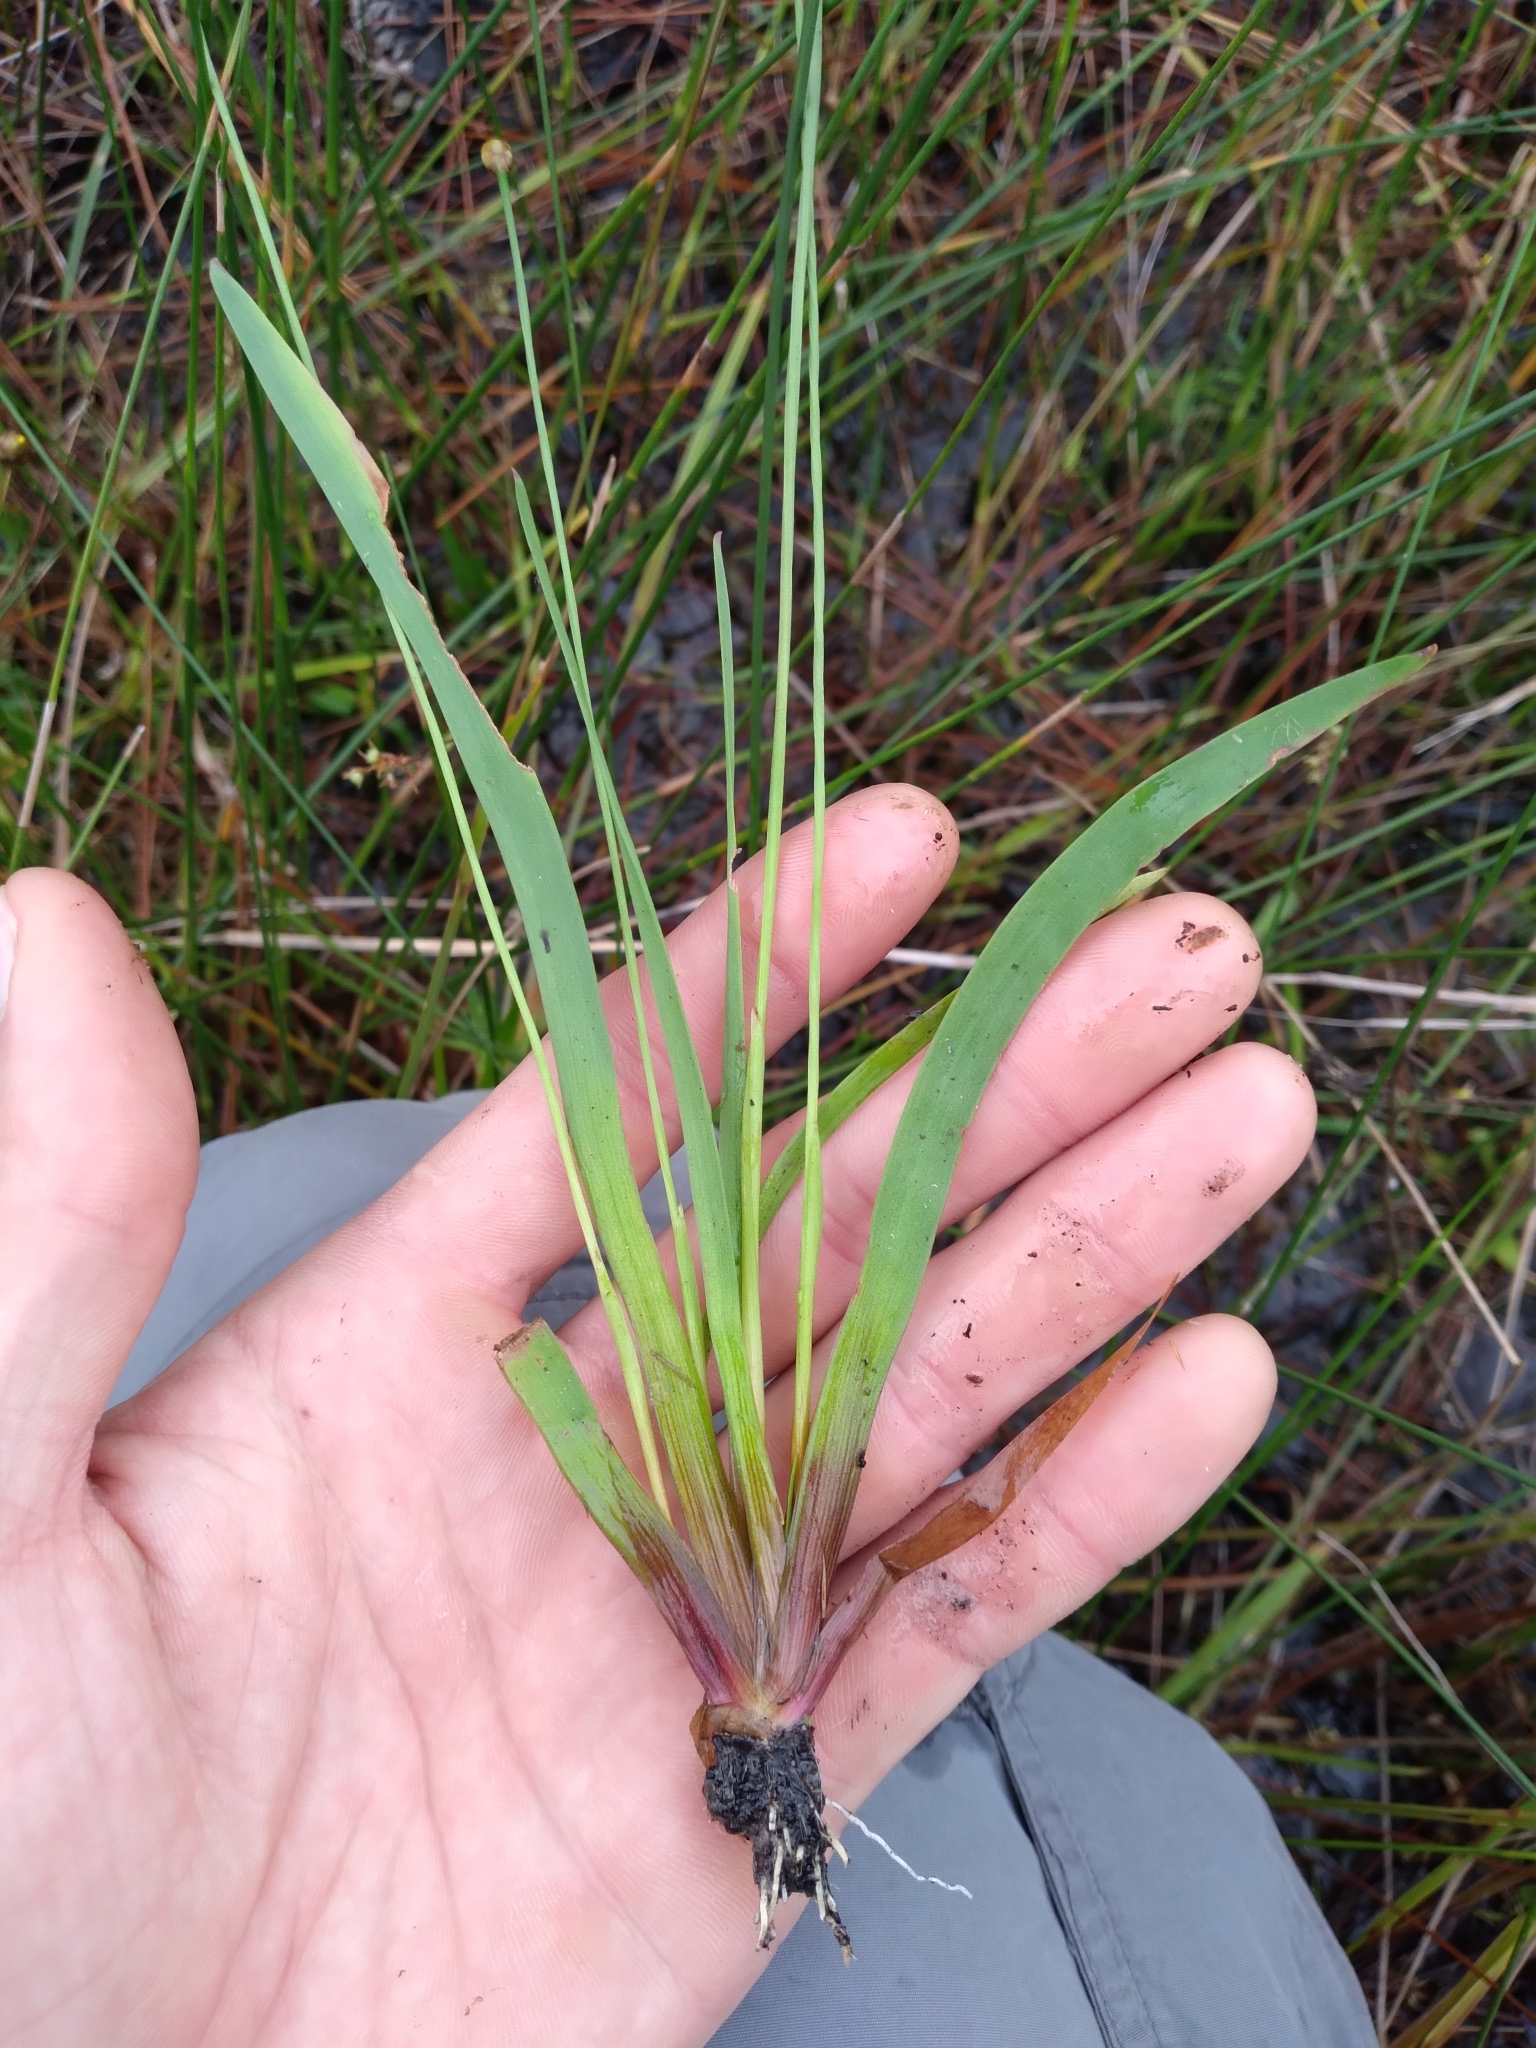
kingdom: Plantae
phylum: Tracheophyta
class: Liliopsida
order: Poales
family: Xyridaceae
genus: Xyris
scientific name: Xyris floridana
